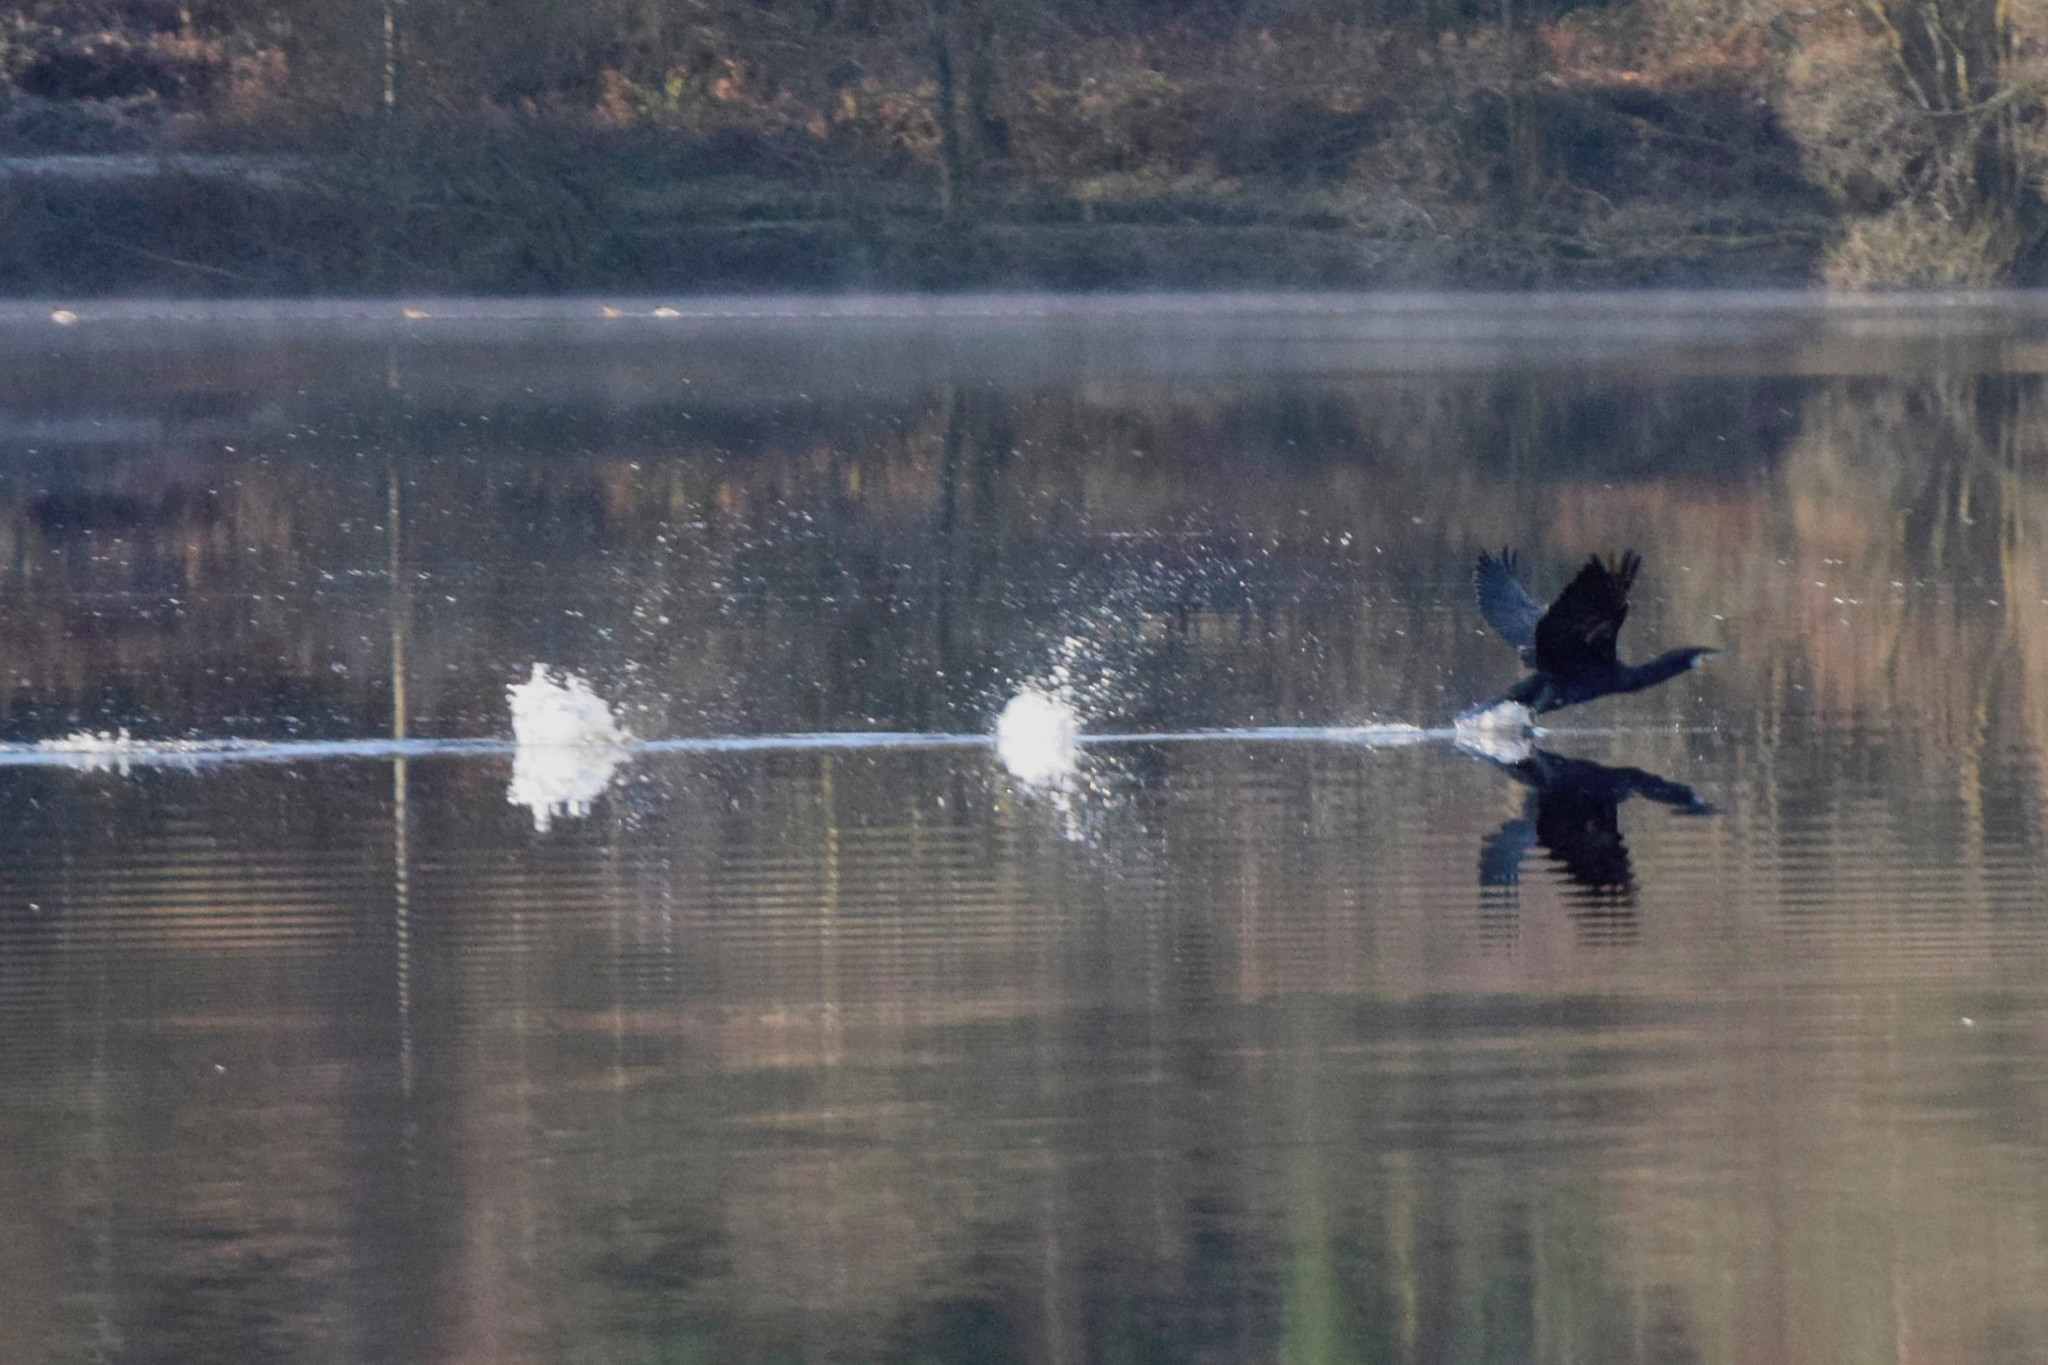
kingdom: Animalia
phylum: Chordata
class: Aves
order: Suliformes
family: Phalacrocoracidae
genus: Phalacrocorax
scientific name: Phalacrocorax carbo
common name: Great cormorant
